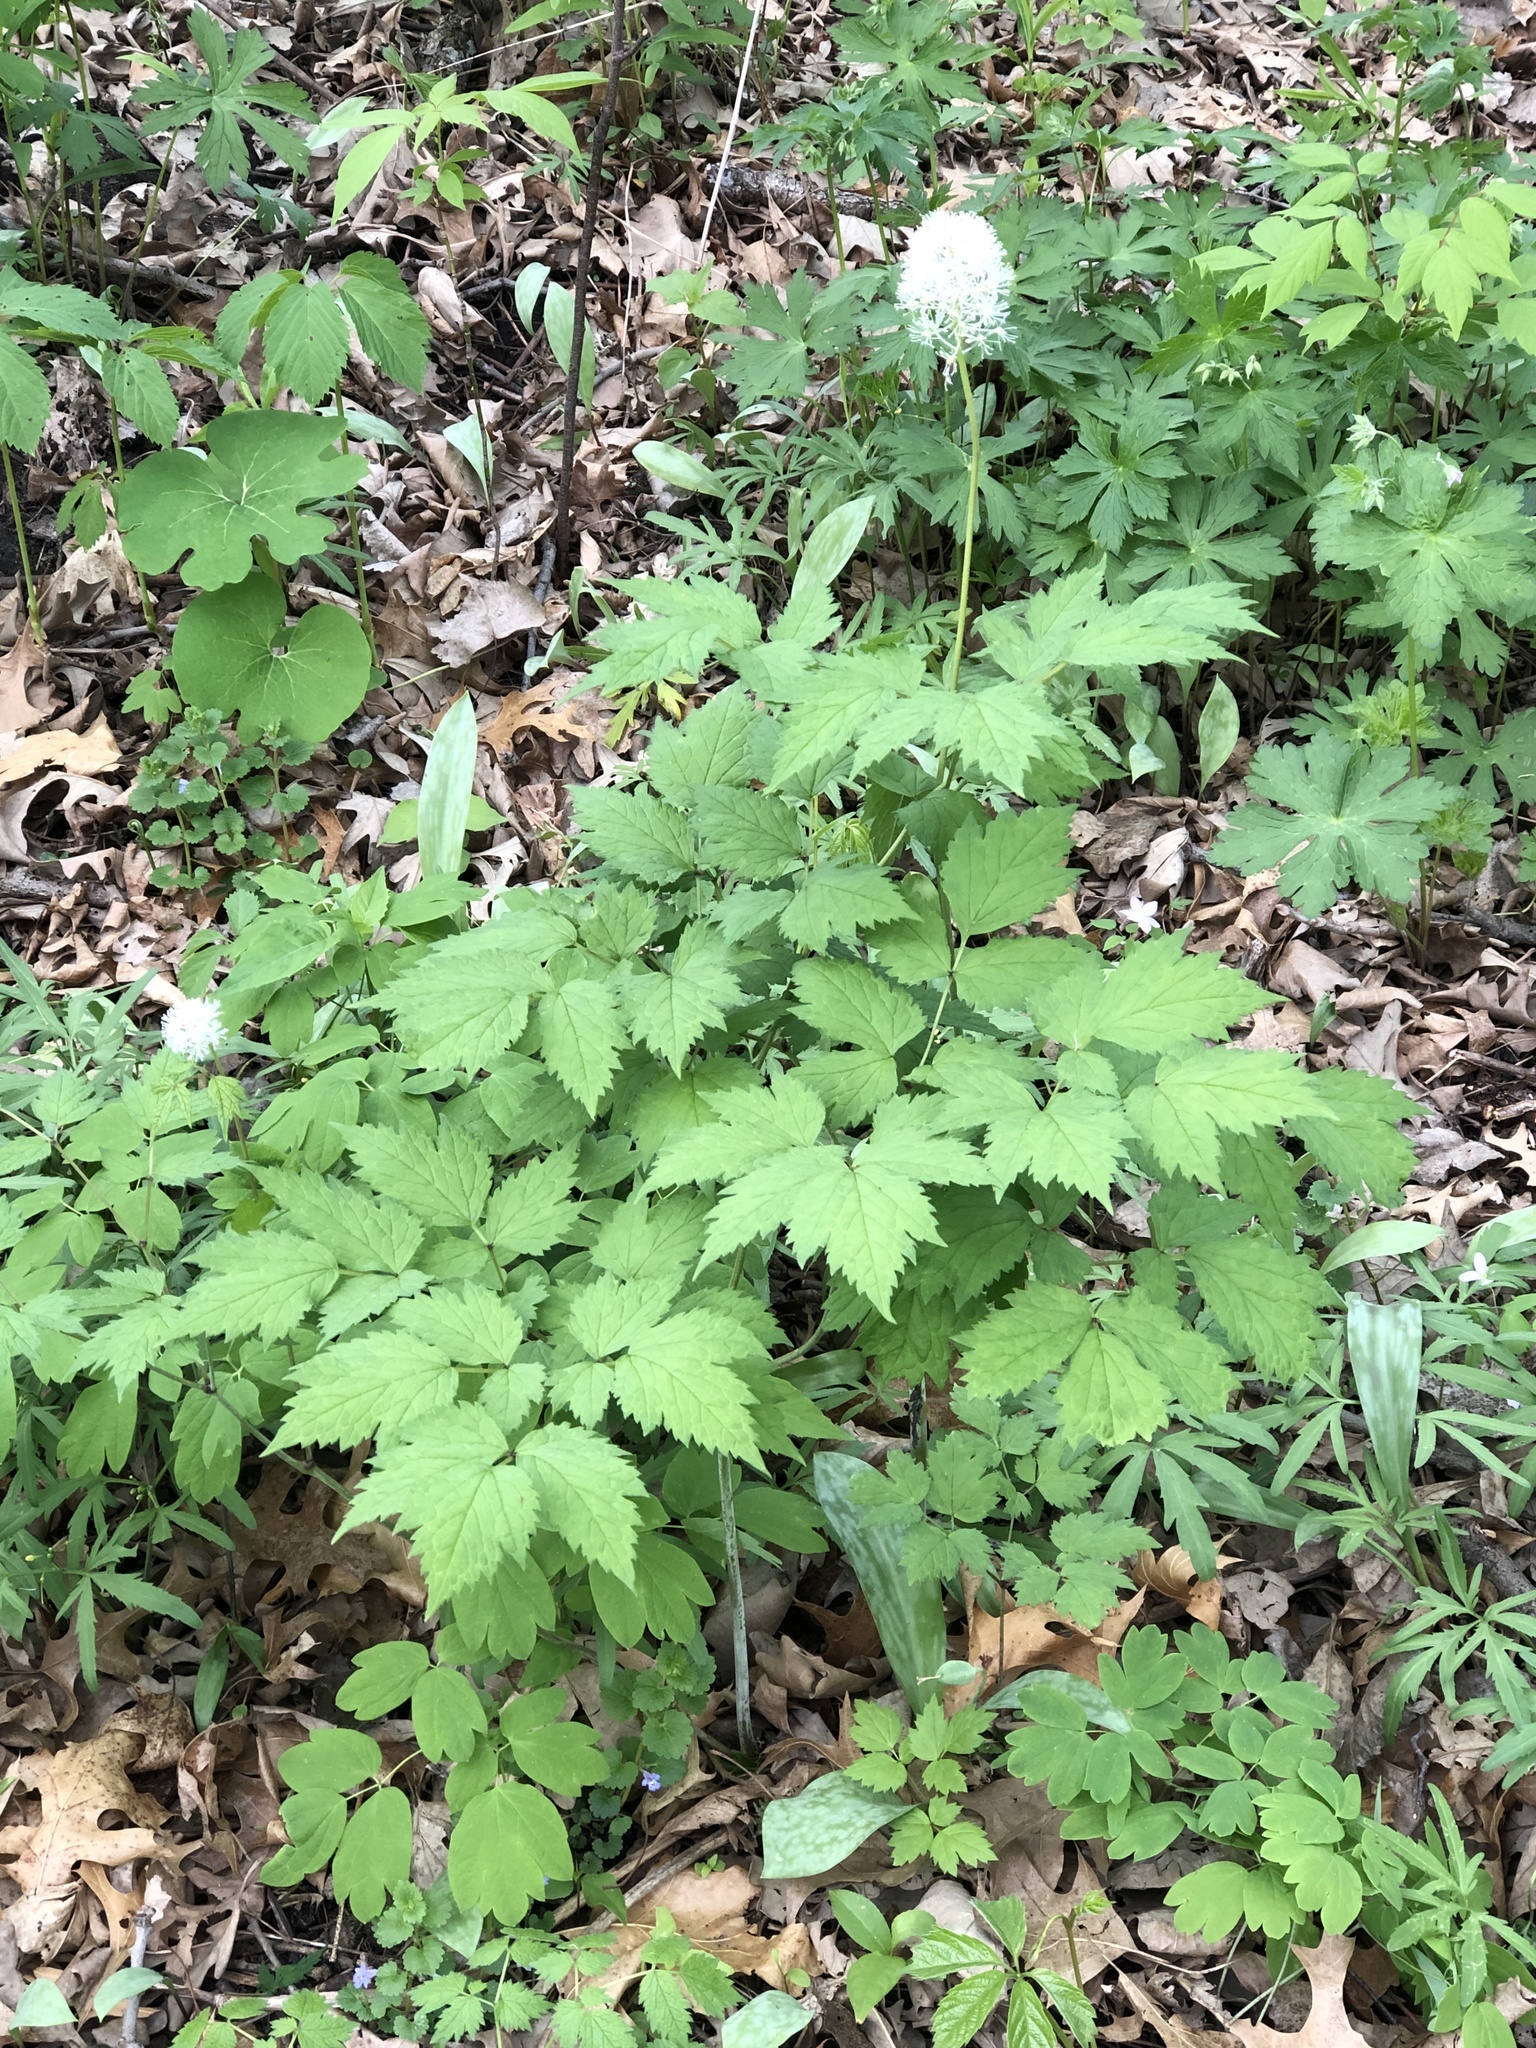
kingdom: Plantae
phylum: Tracheophyta
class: Magnoliopsida
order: Ranunculales
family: Ranunculaceae
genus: Actaea
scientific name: Actaea rubra
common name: Red baneberry
